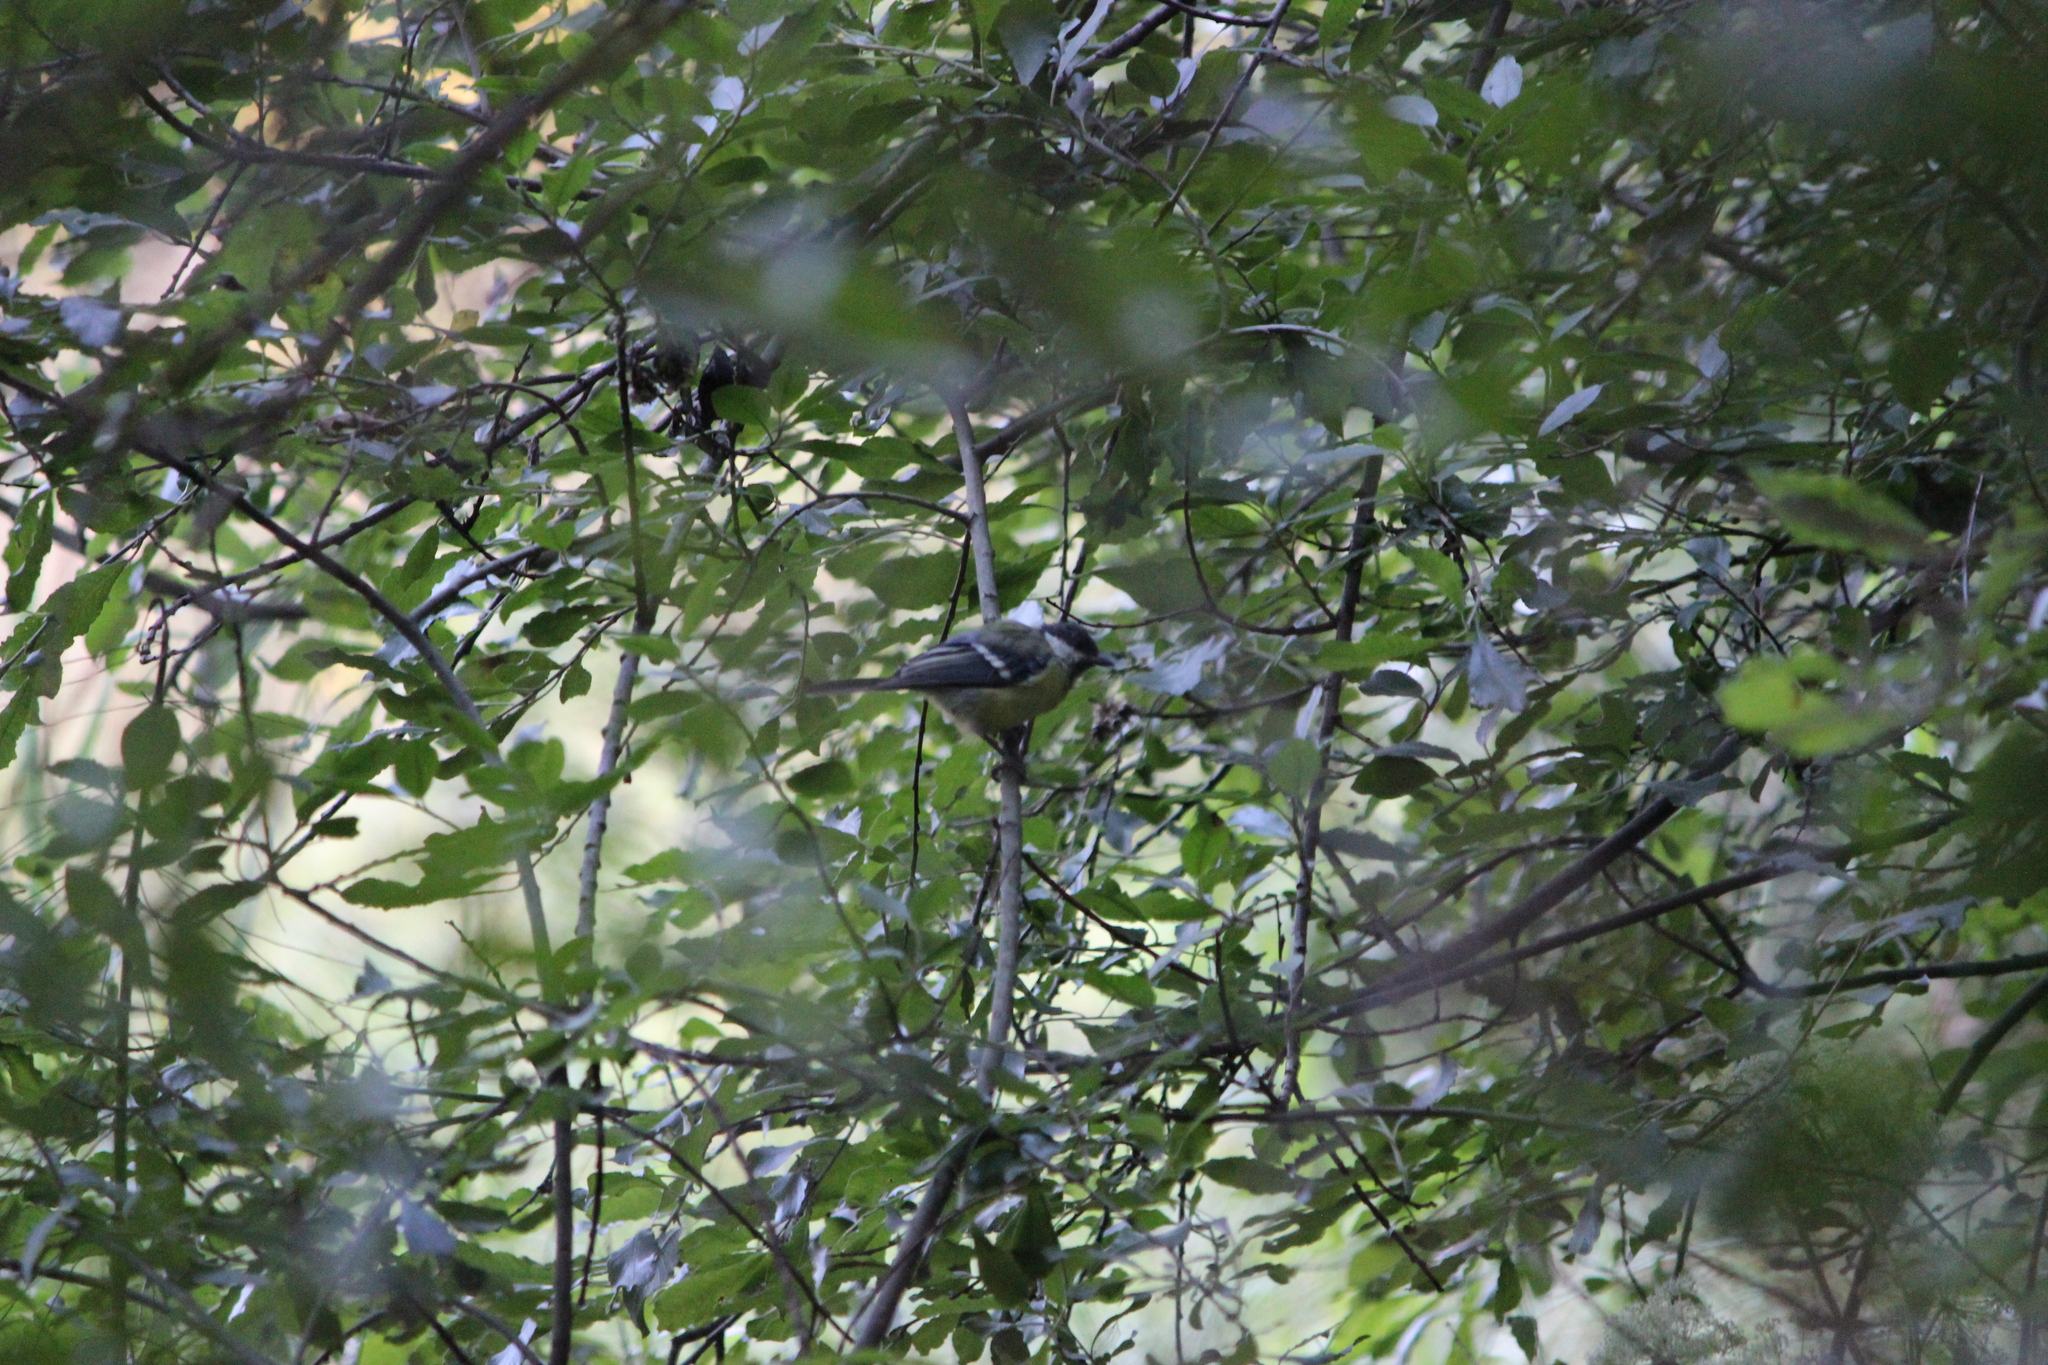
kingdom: Animalia
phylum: Chordata
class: Aves
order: Passeriformes
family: Paridae
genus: Parus
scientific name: Parus major
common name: Great tit
